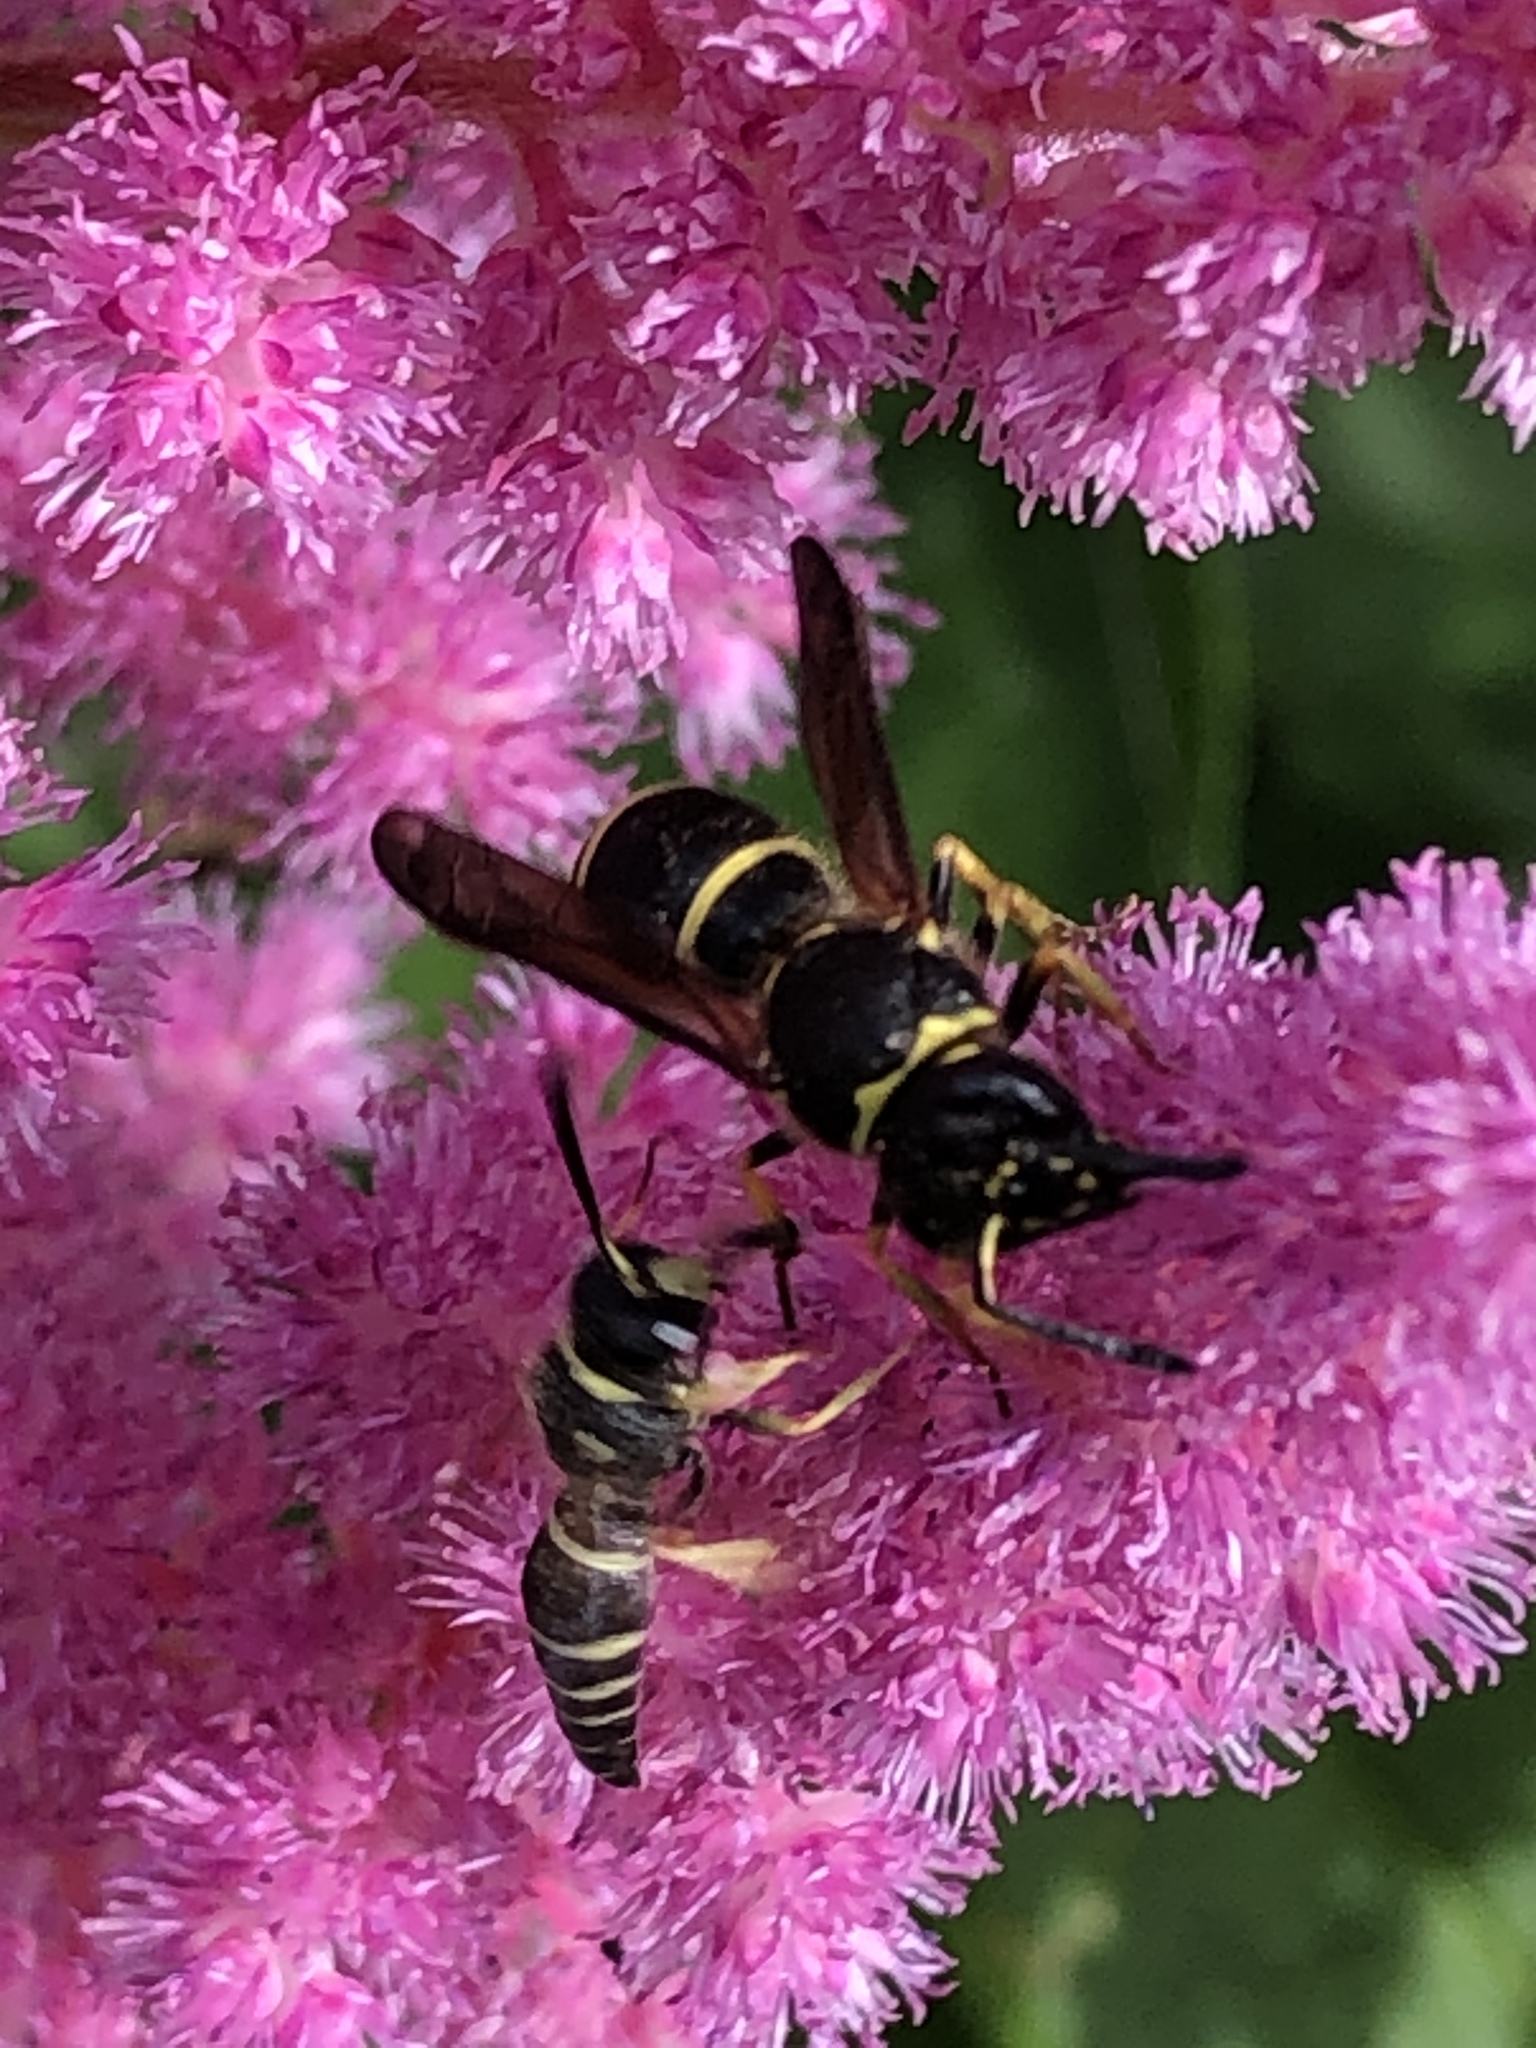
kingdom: Animalia
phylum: Arthropoda
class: Insecta
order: Hymenoptera
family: Vespidae
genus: Ancistrocerus
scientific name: Ancistrocerus catskill
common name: Vespid wasp
